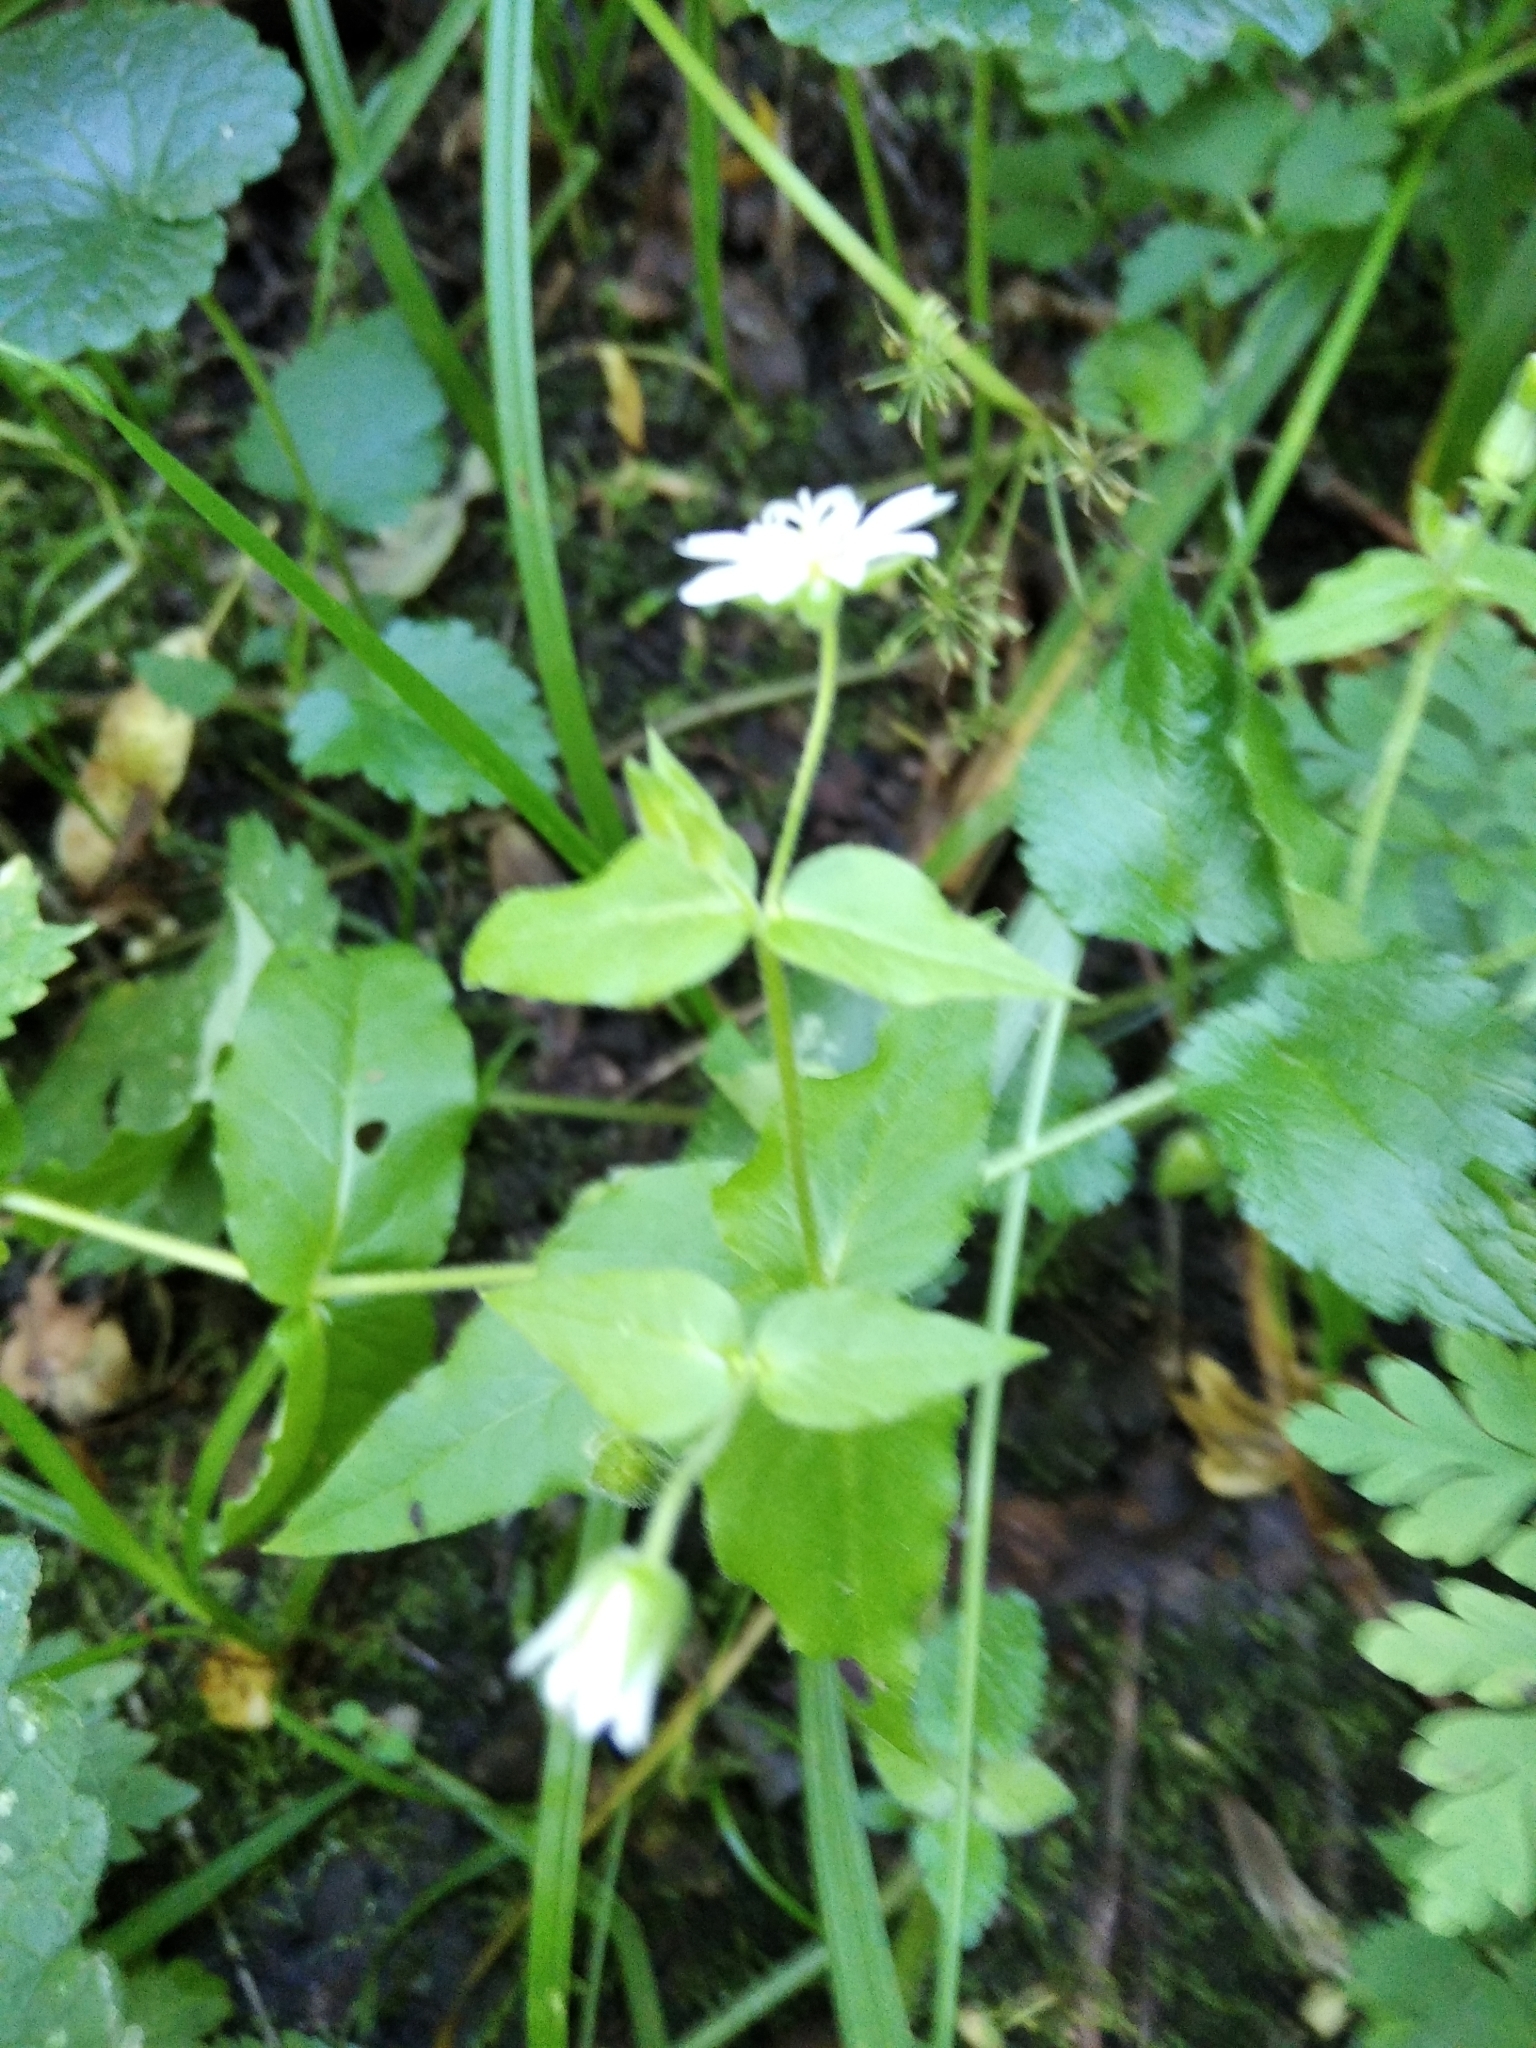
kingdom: Plantae
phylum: Tracheophyta
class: Magnoliopsida
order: Caryophyllales
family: Caryophyllaceae
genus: Stellaria
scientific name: Stellaria aquatica
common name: Water chickweed
